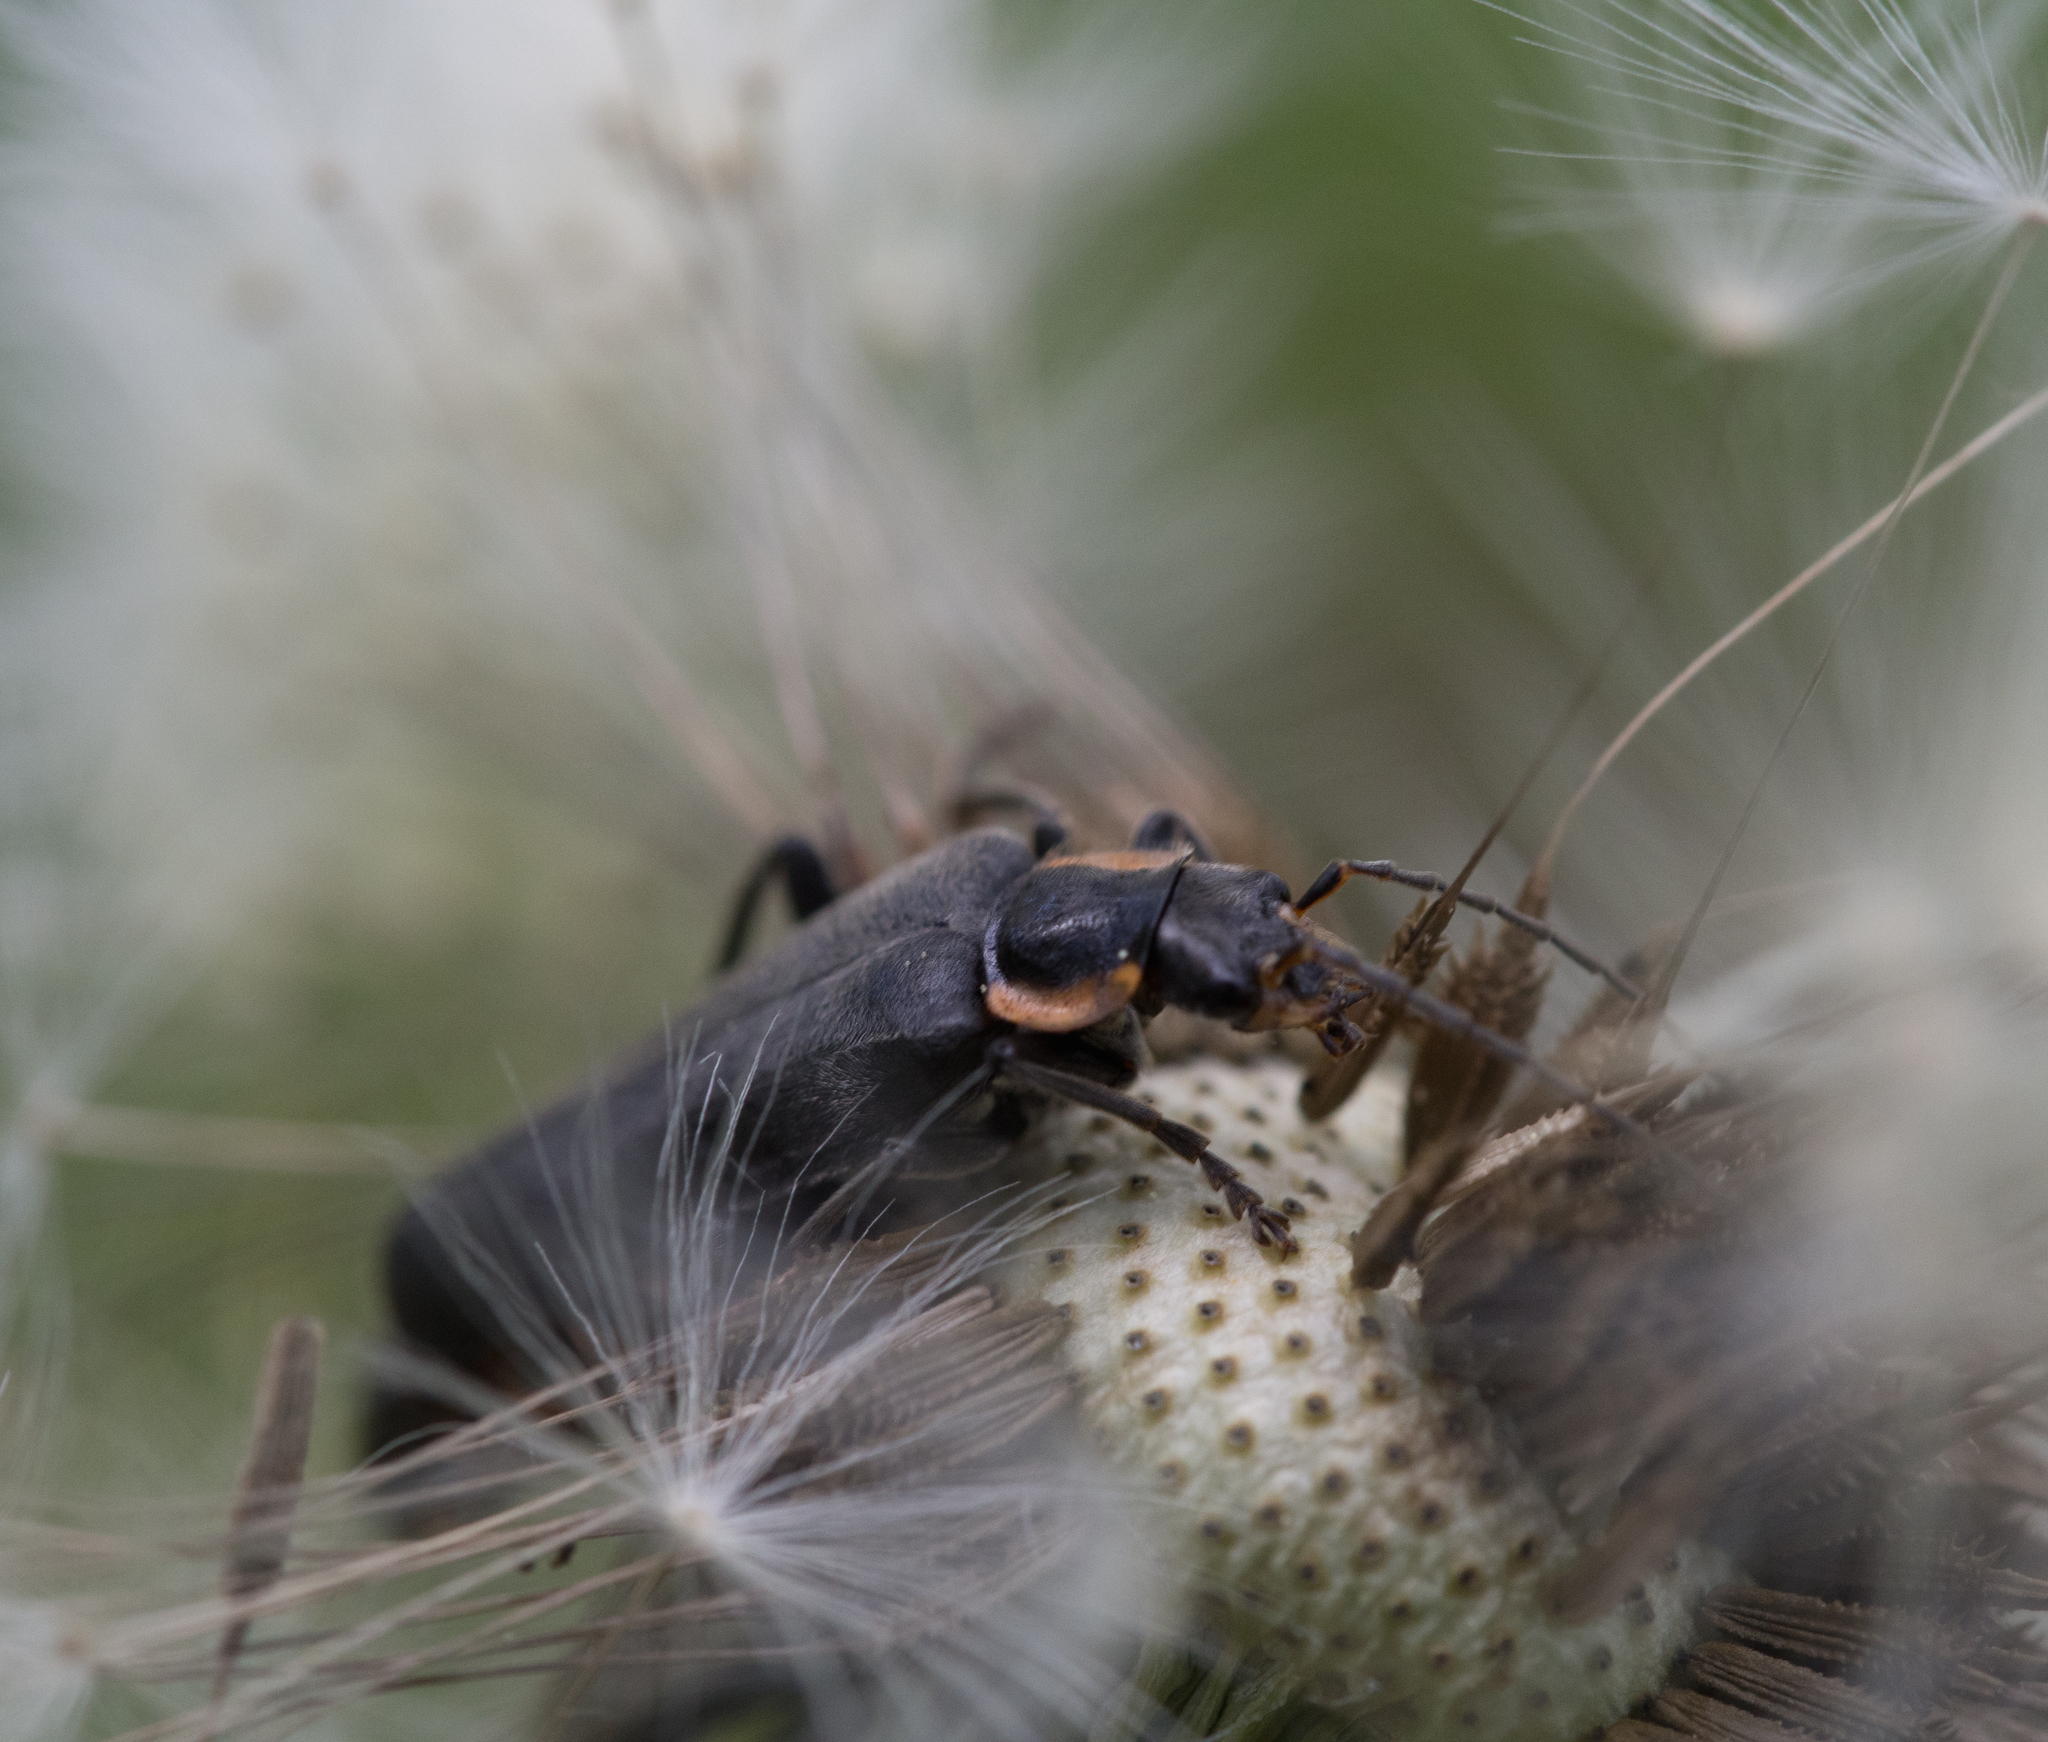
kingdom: Animalia
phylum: Arthropoda
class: Insecta
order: Coleoptera
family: Cantharidae
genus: Cantharis
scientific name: Cantharis
